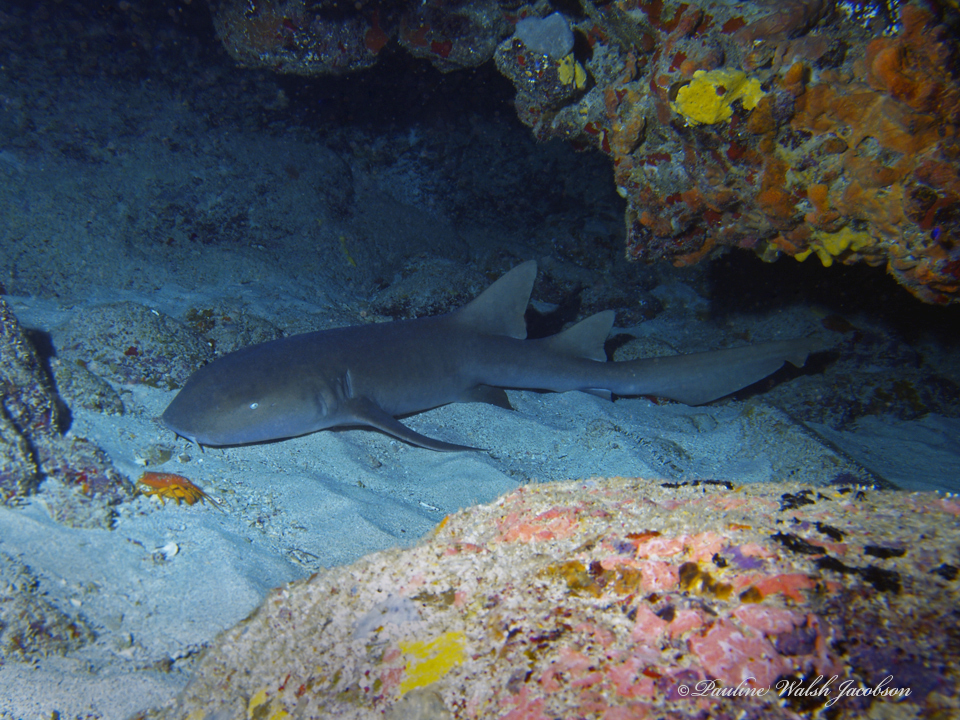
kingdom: Animalia
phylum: Chordata
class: Elasmobranchii
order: Orectolobiformes
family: Ginglymostomatidae
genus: Ginglymostoma
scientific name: Ginglymostoma cirratum
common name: Nurse shark
